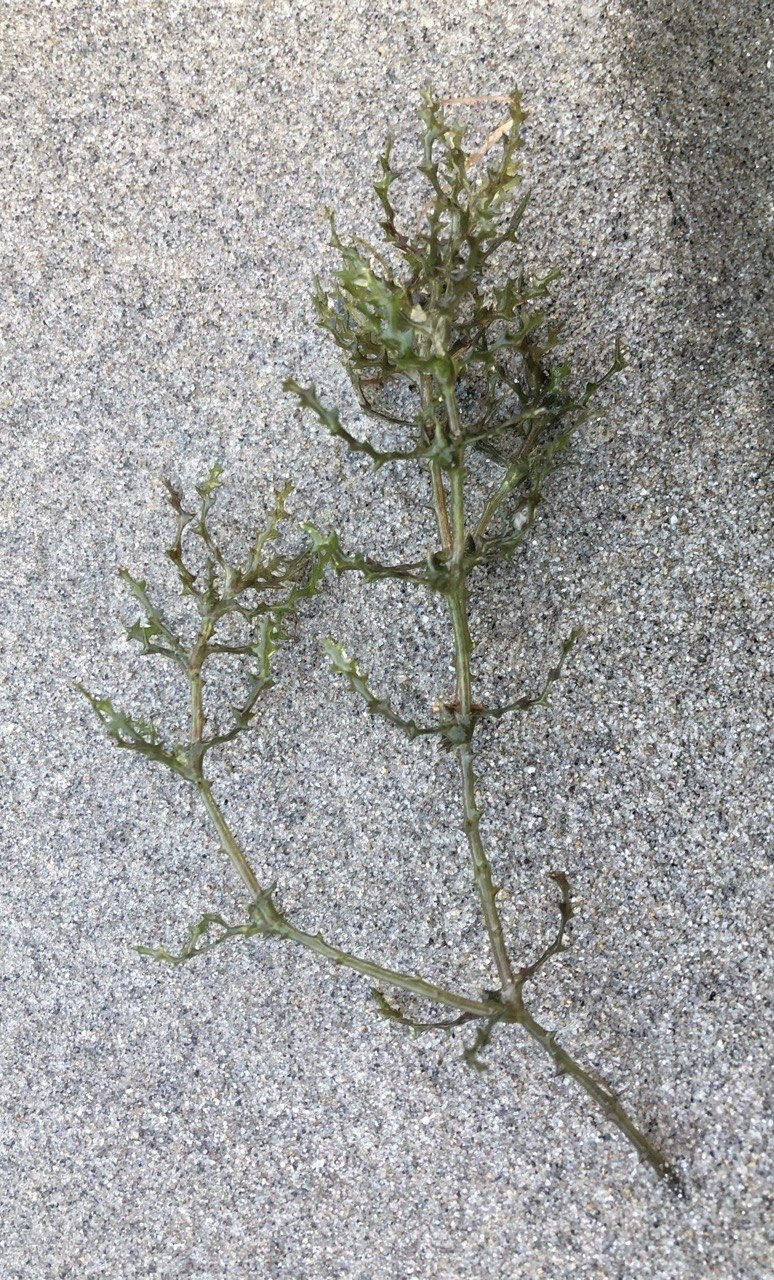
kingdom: Plantae
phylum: Tracheophyta
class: Liliopsida
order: Alismatales
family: Hydrocharitaceae
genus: Najas
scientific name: Najas marina
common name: Holly-leaved naiad
